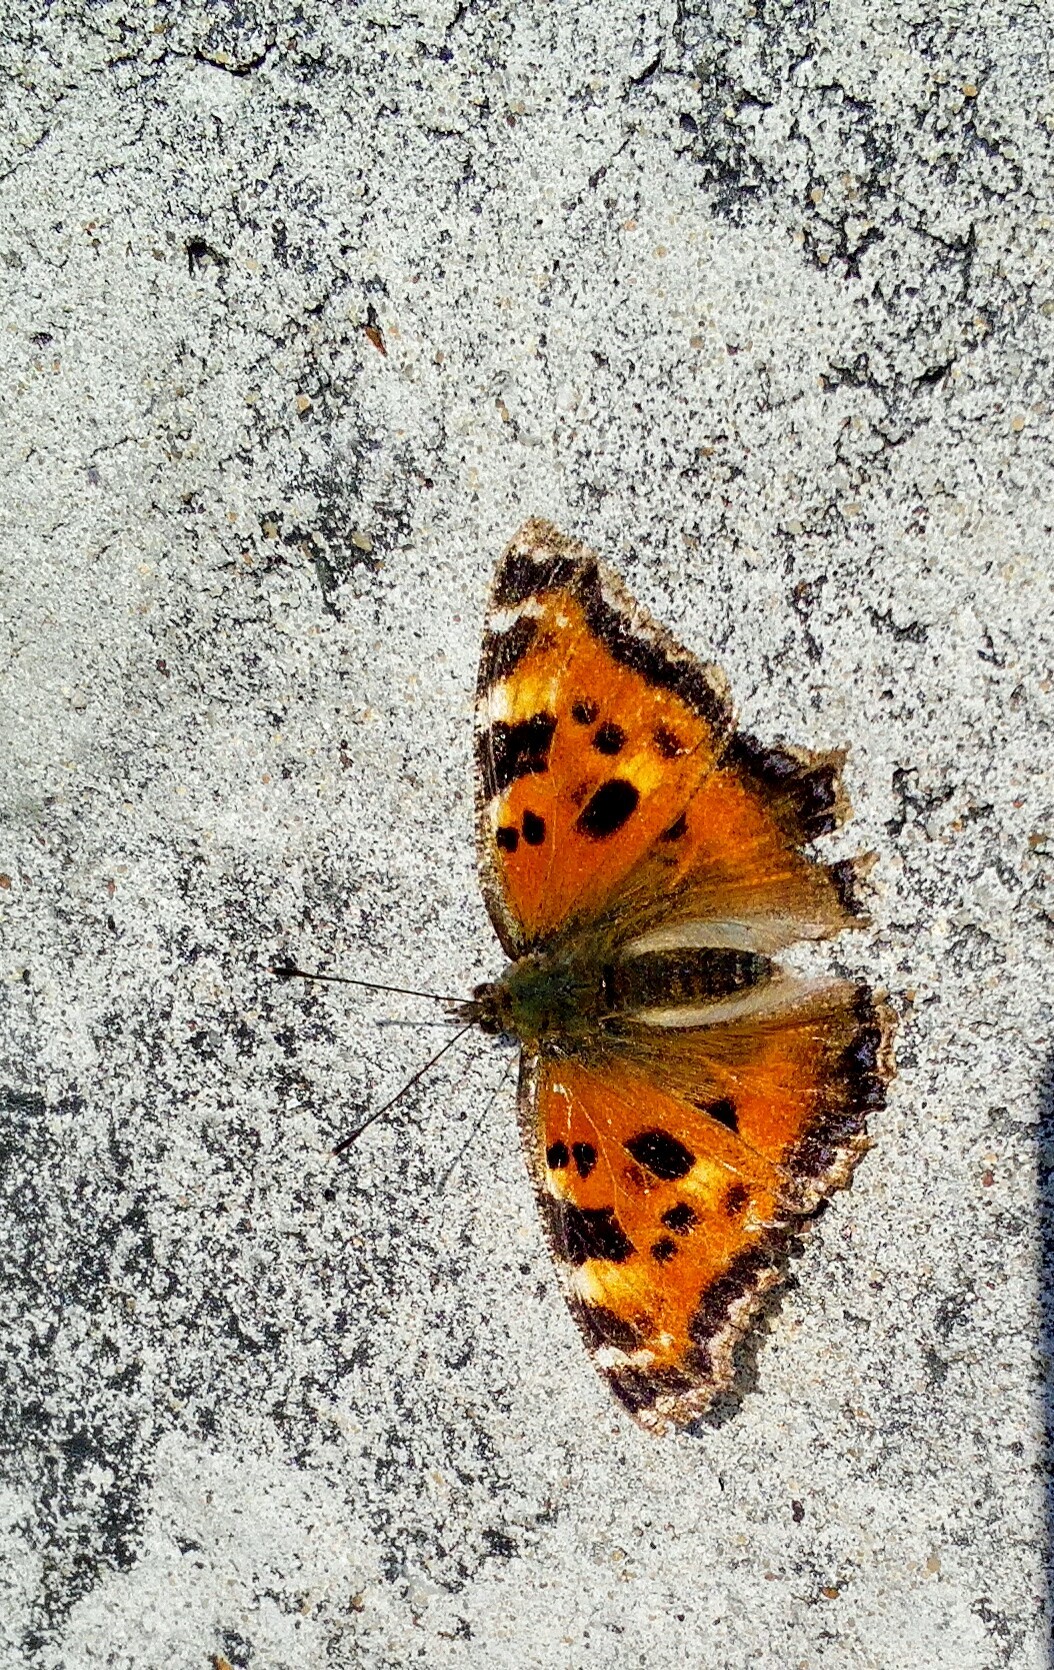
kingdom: Animalia
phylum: Arthropoda
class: Insecta
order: Lepidoptera
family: Nymphalidae
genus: Nymphalis
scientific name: Nymphalis xanthomelas
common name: Scarce tortoiseshell
